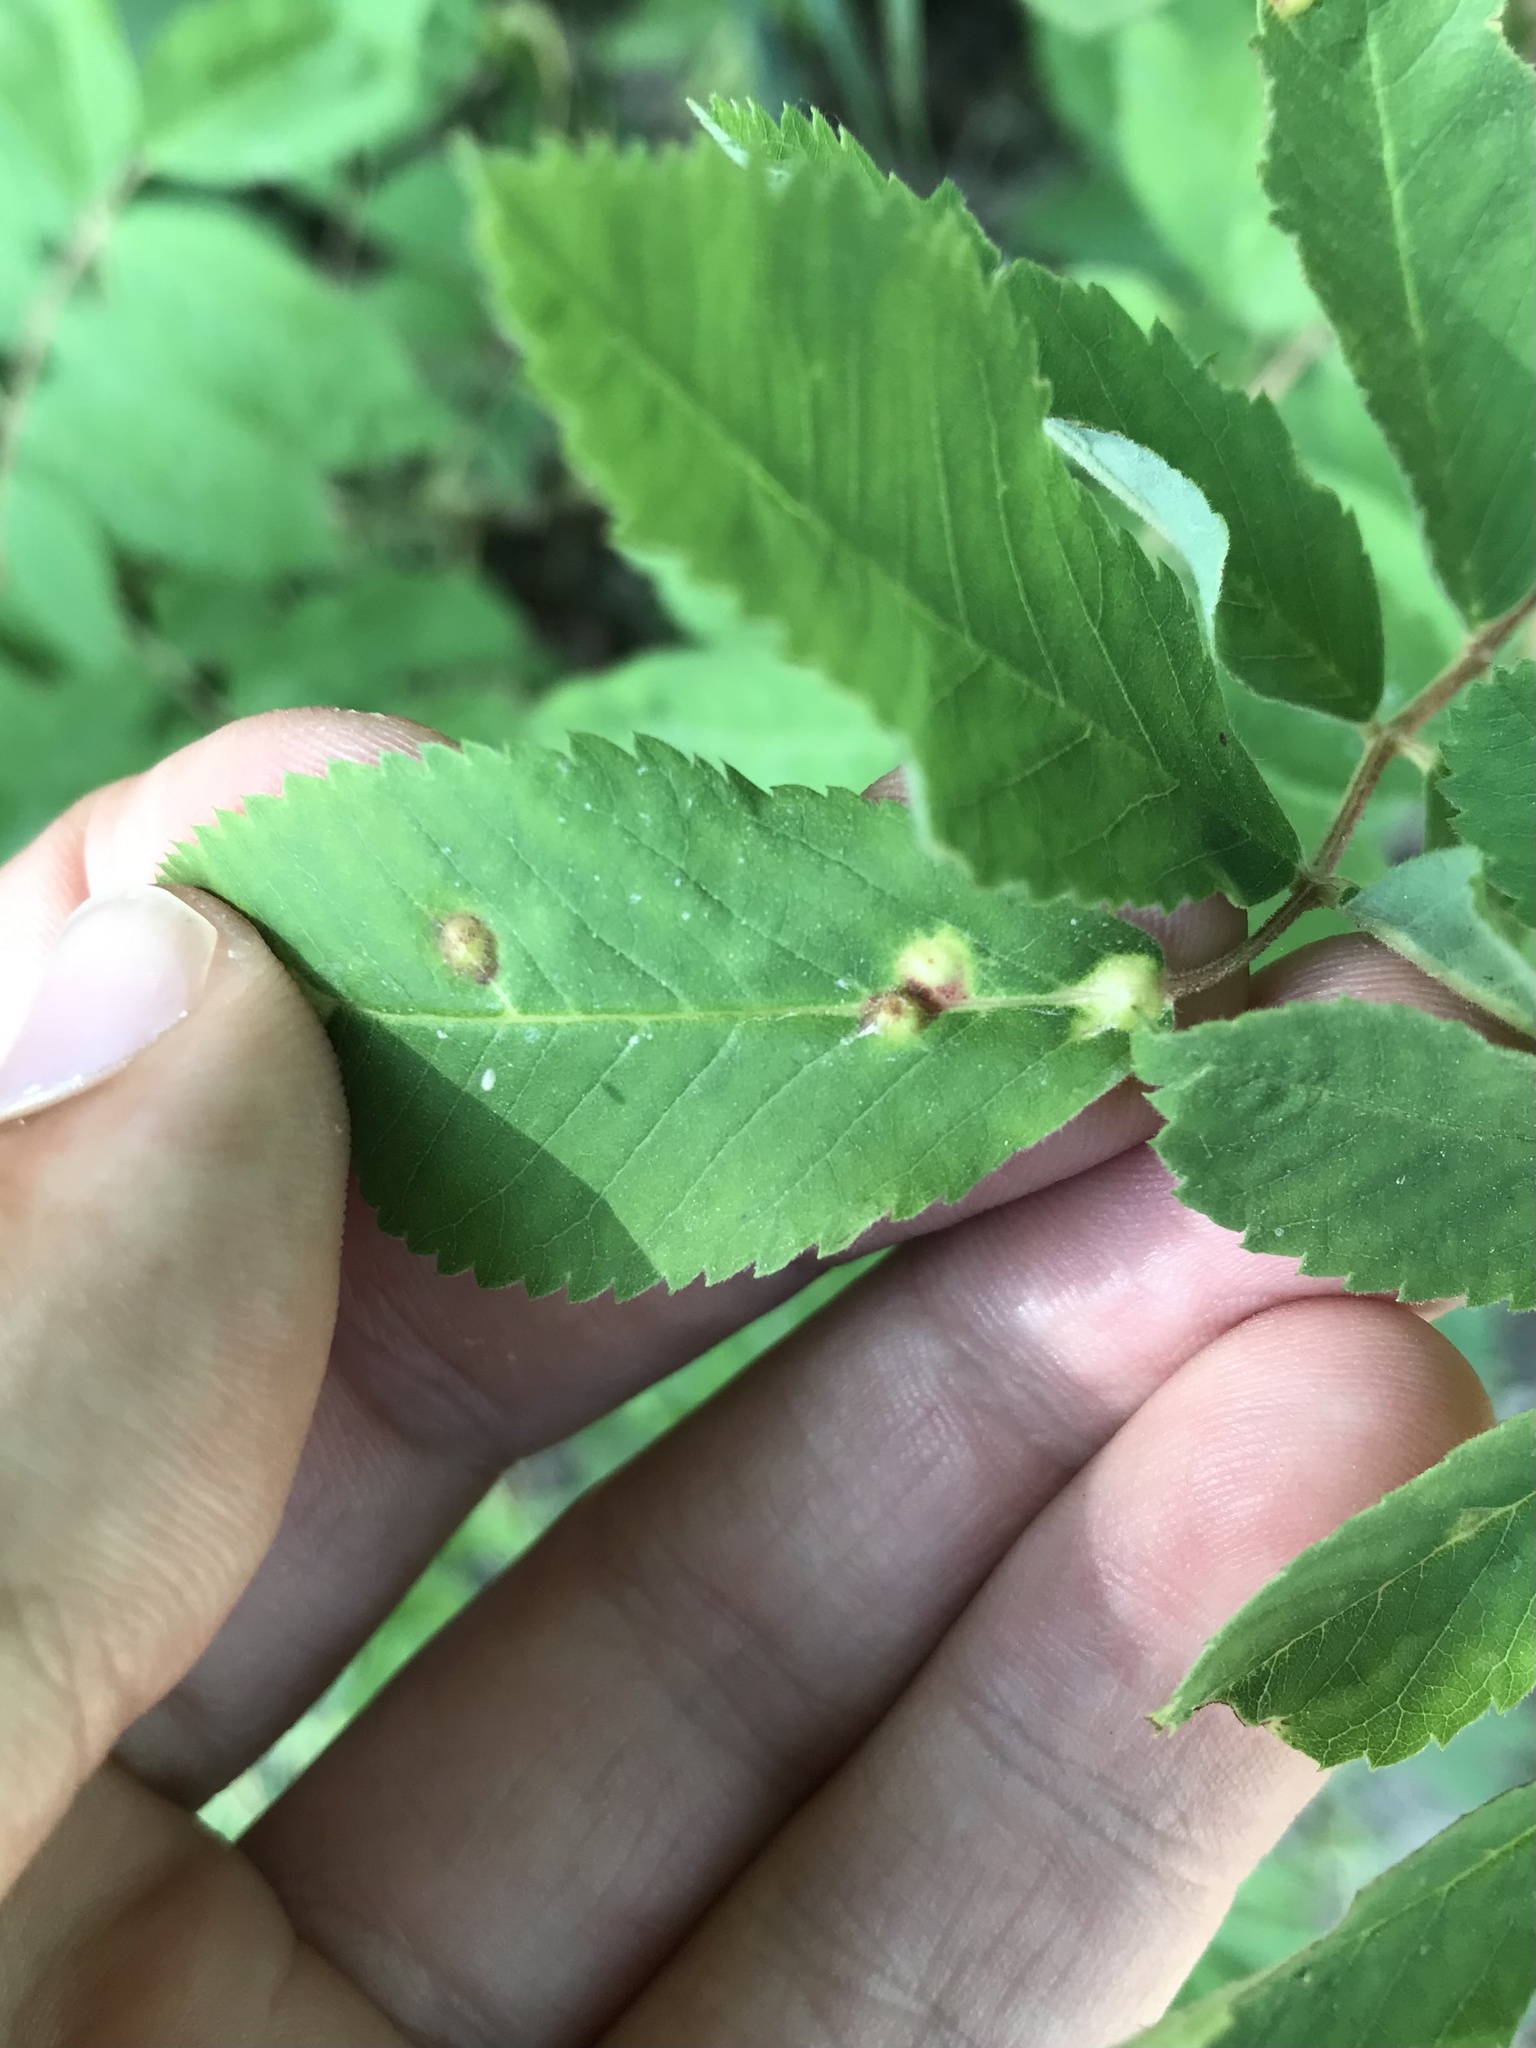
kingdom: Animalia
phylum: Arthropoda
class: Insecta
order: Hymenoptera
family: Cynipidae
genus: Diplolepis
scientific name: Diplolepis rosaefolii
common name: Blister-gall wasp
